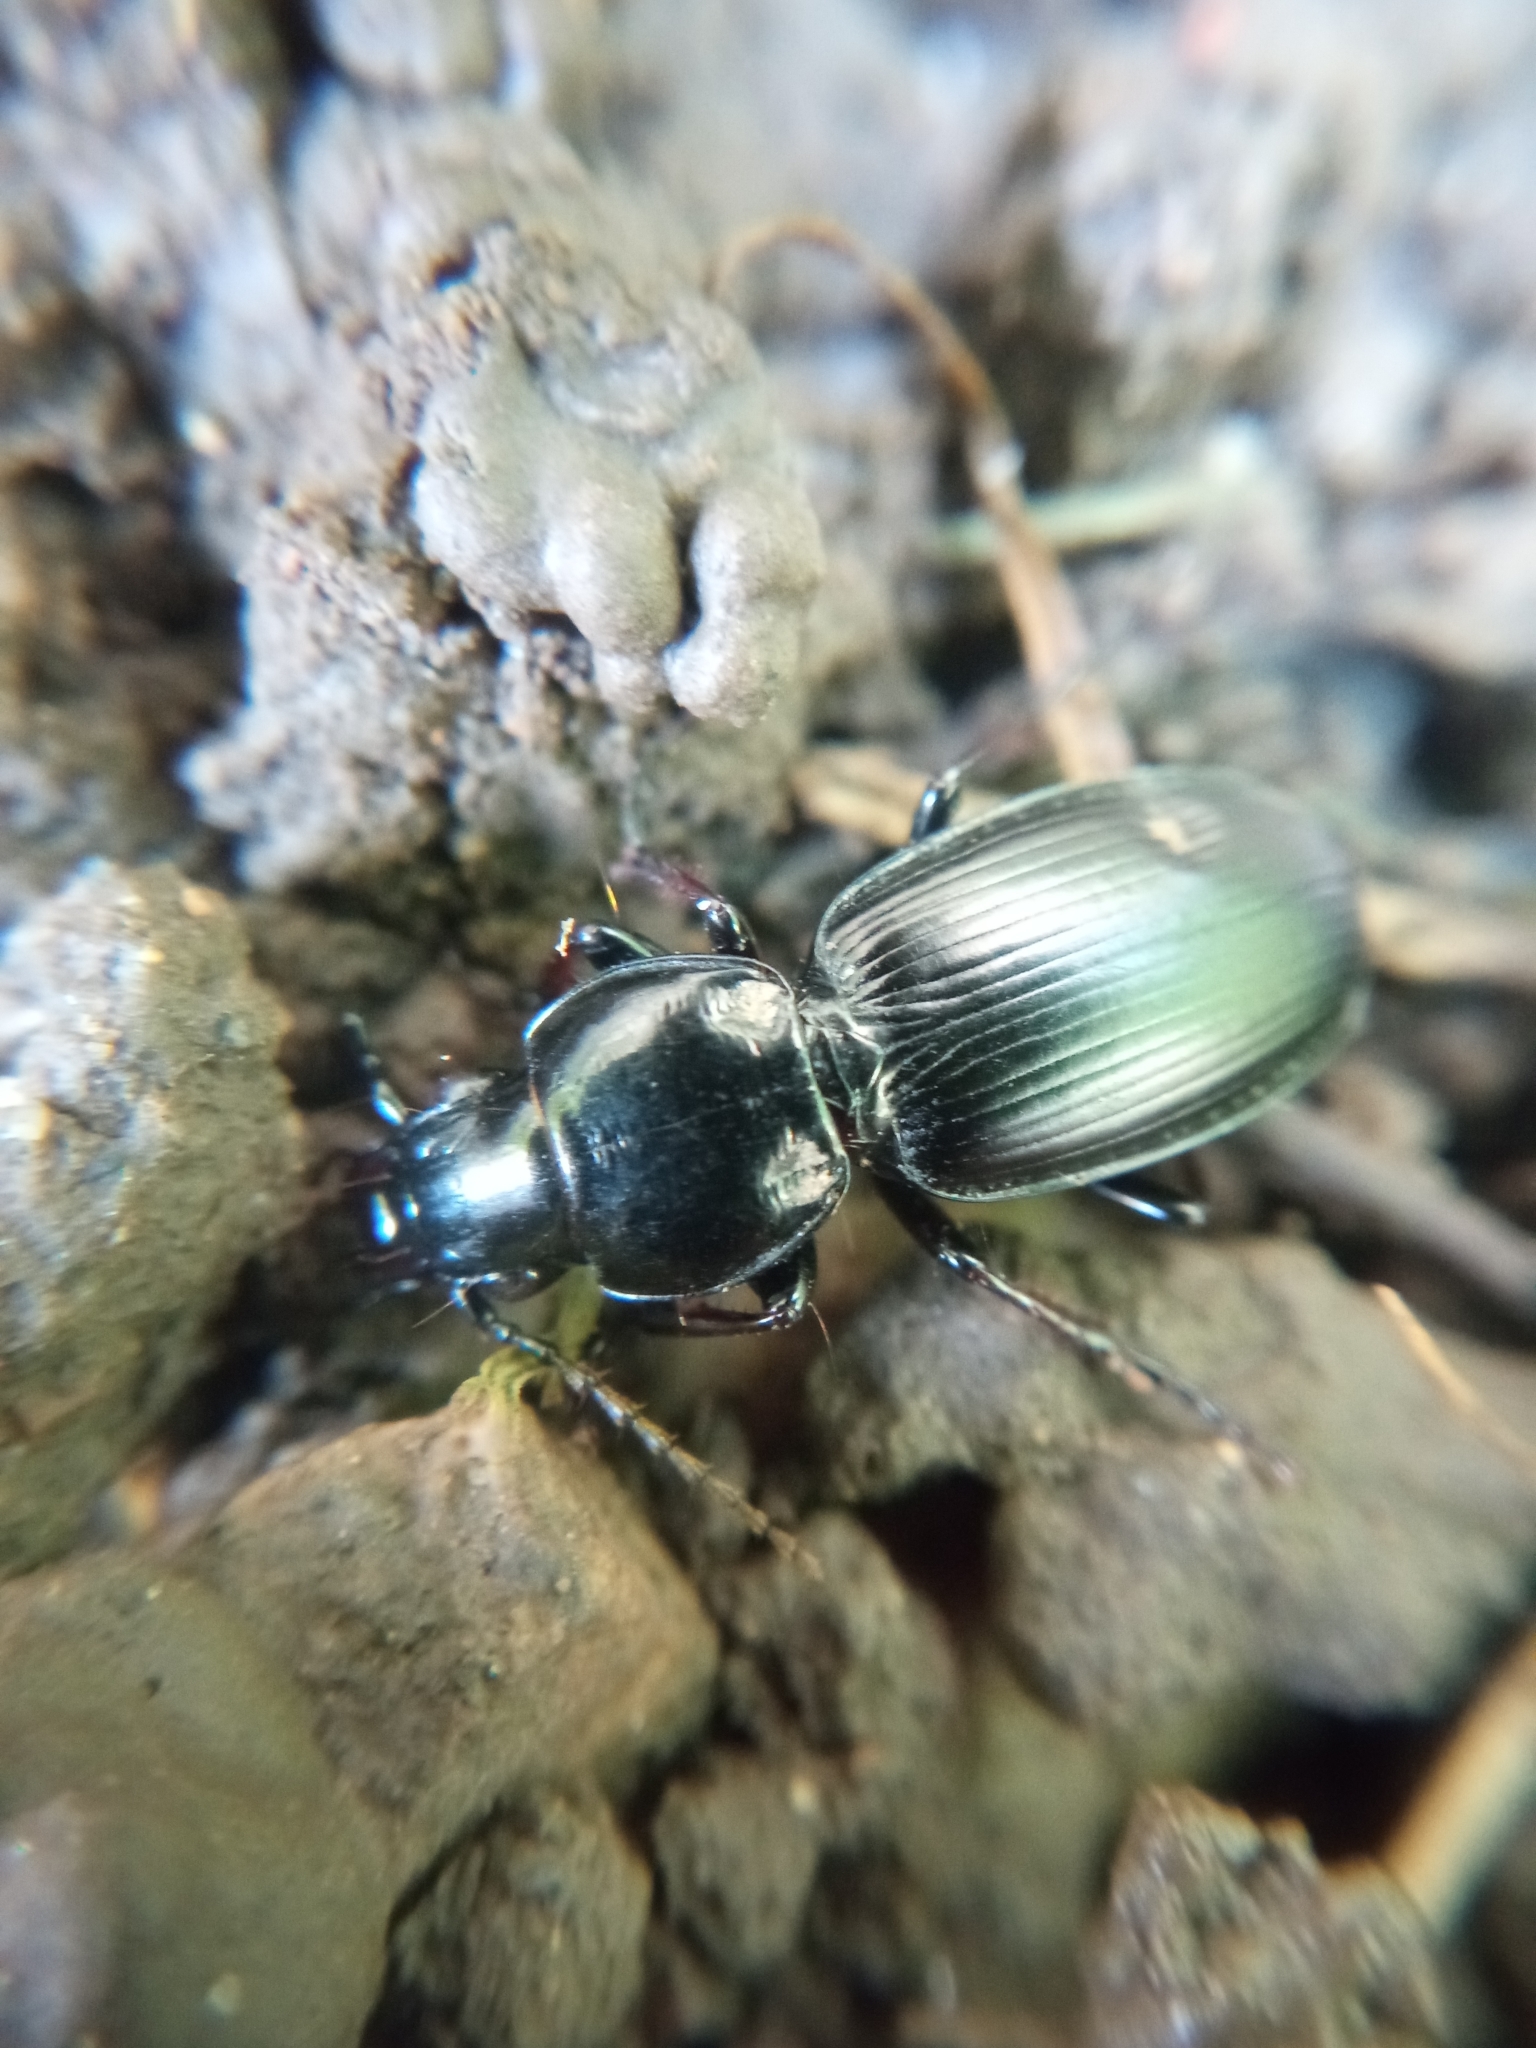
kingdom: Animalia
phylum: Arthropoda
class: Insecta
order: Coleoptera
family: Carabidae
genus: Pterostichus
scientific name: Pterostichus madidus
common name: Black clock
